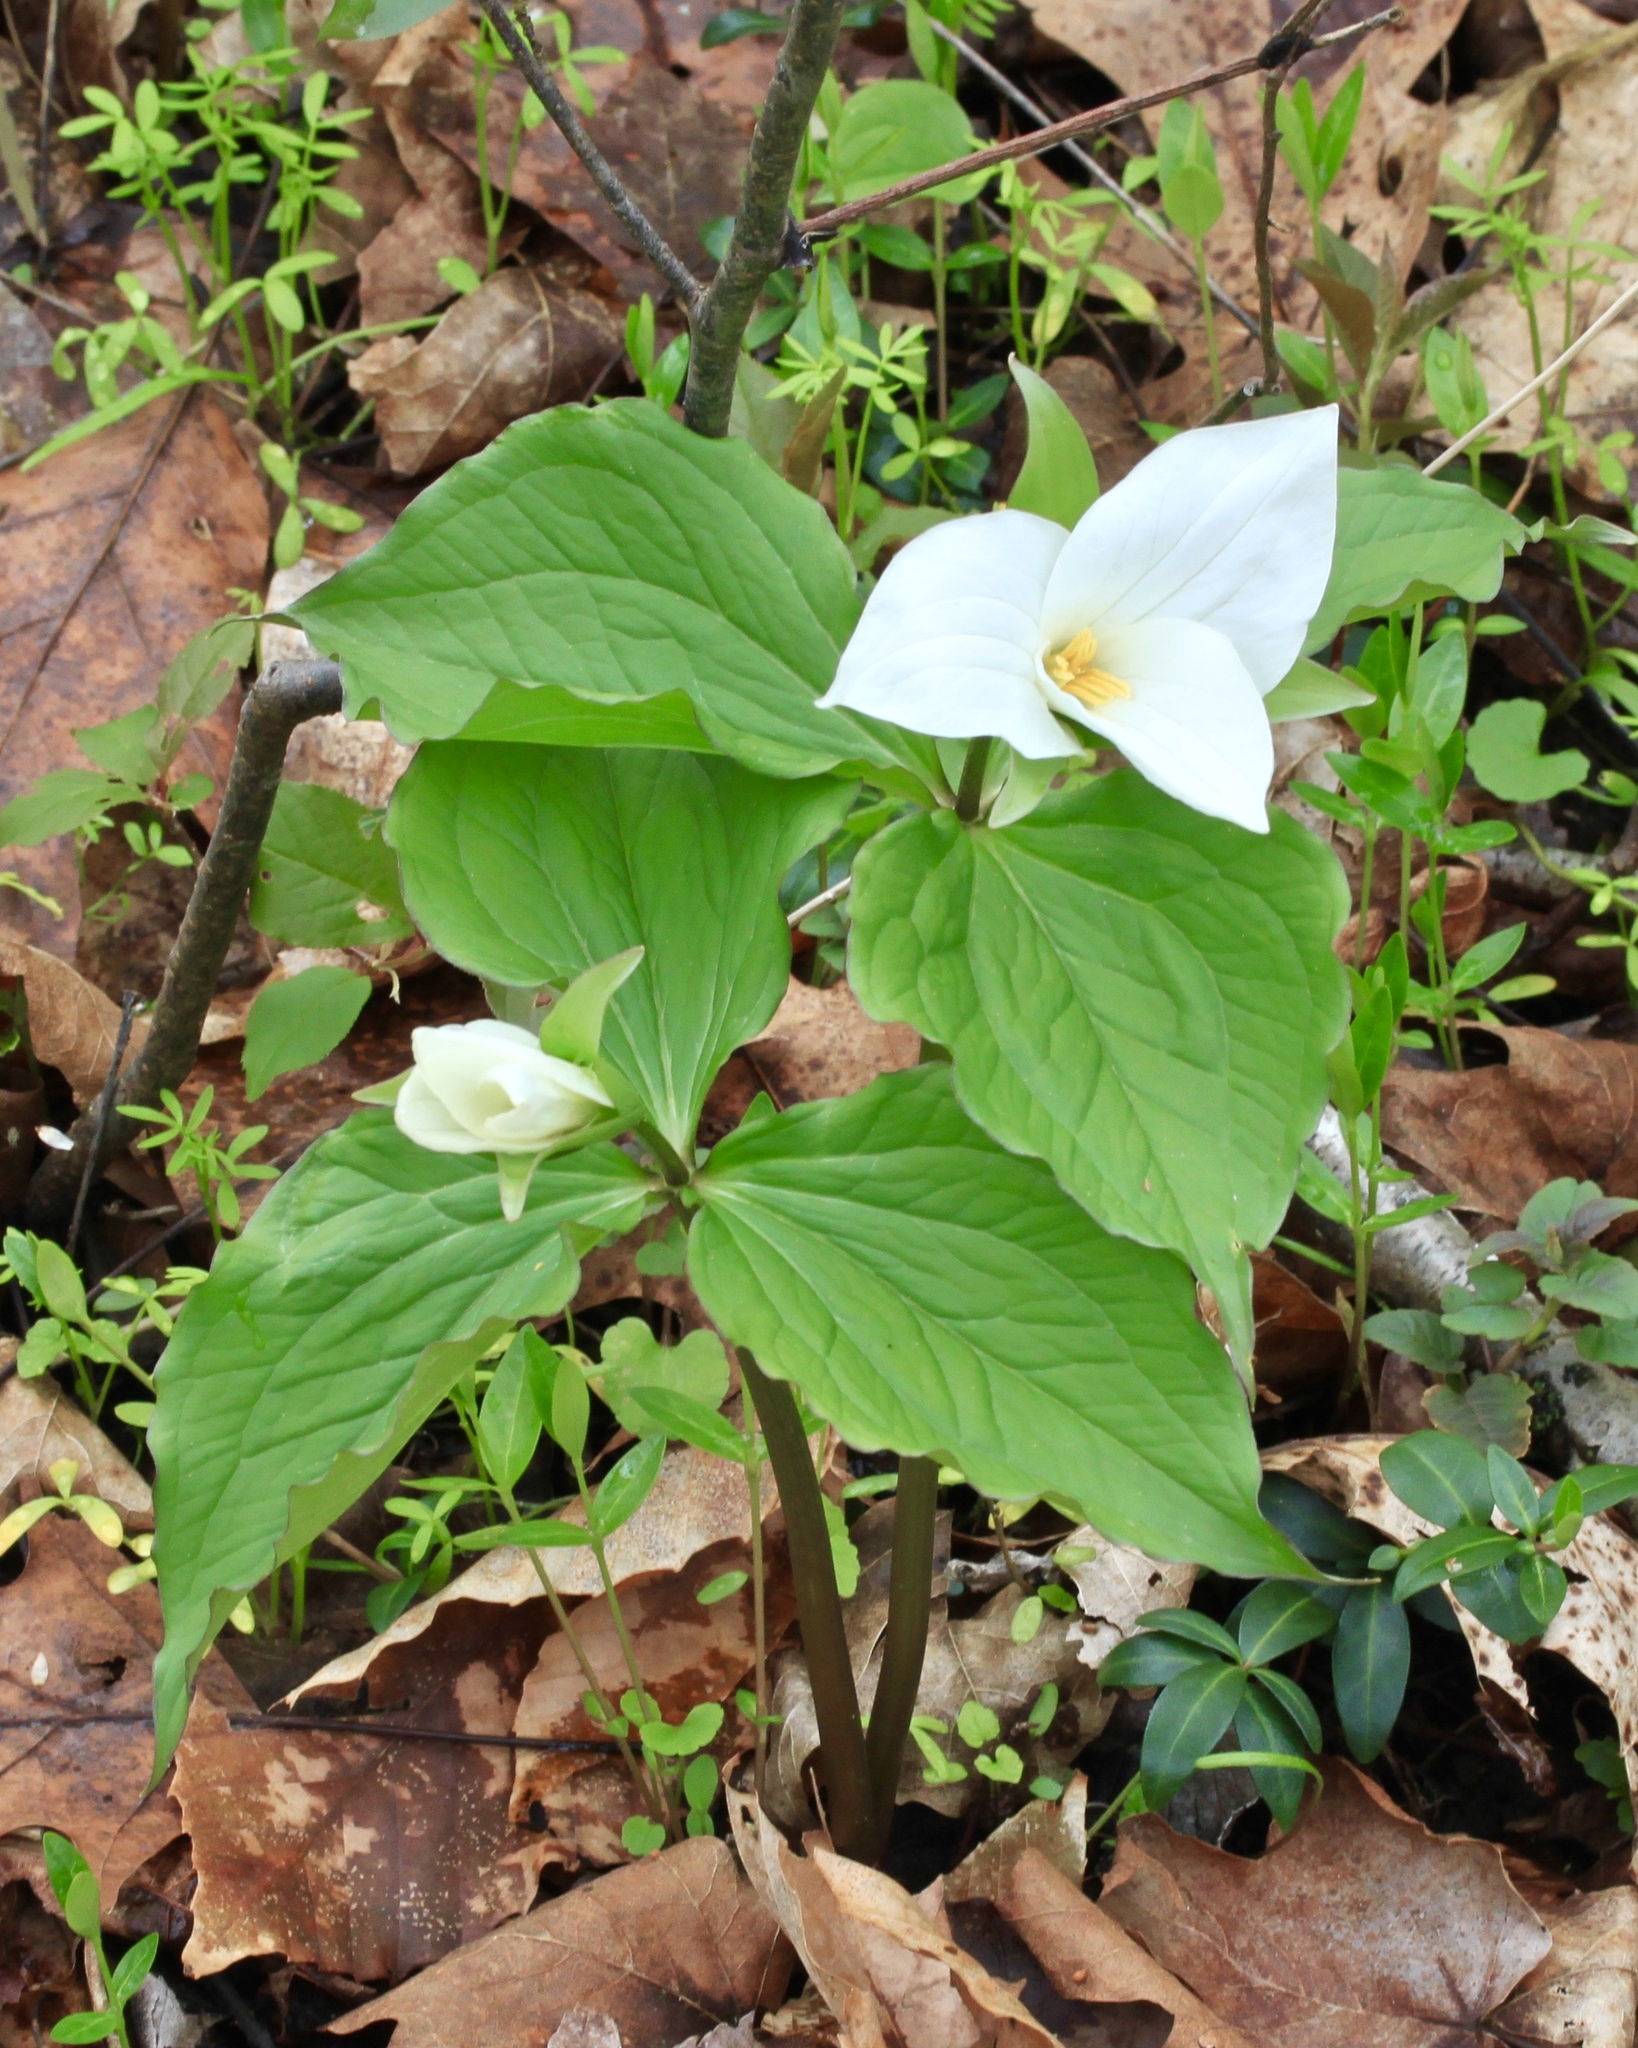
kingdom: Plantae
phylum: Tracheophyta
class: Liliopsida
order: Liliales
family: Melanthiaceae
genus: Trillium
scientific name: Trillium grandiflorum
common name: Great white trillium
